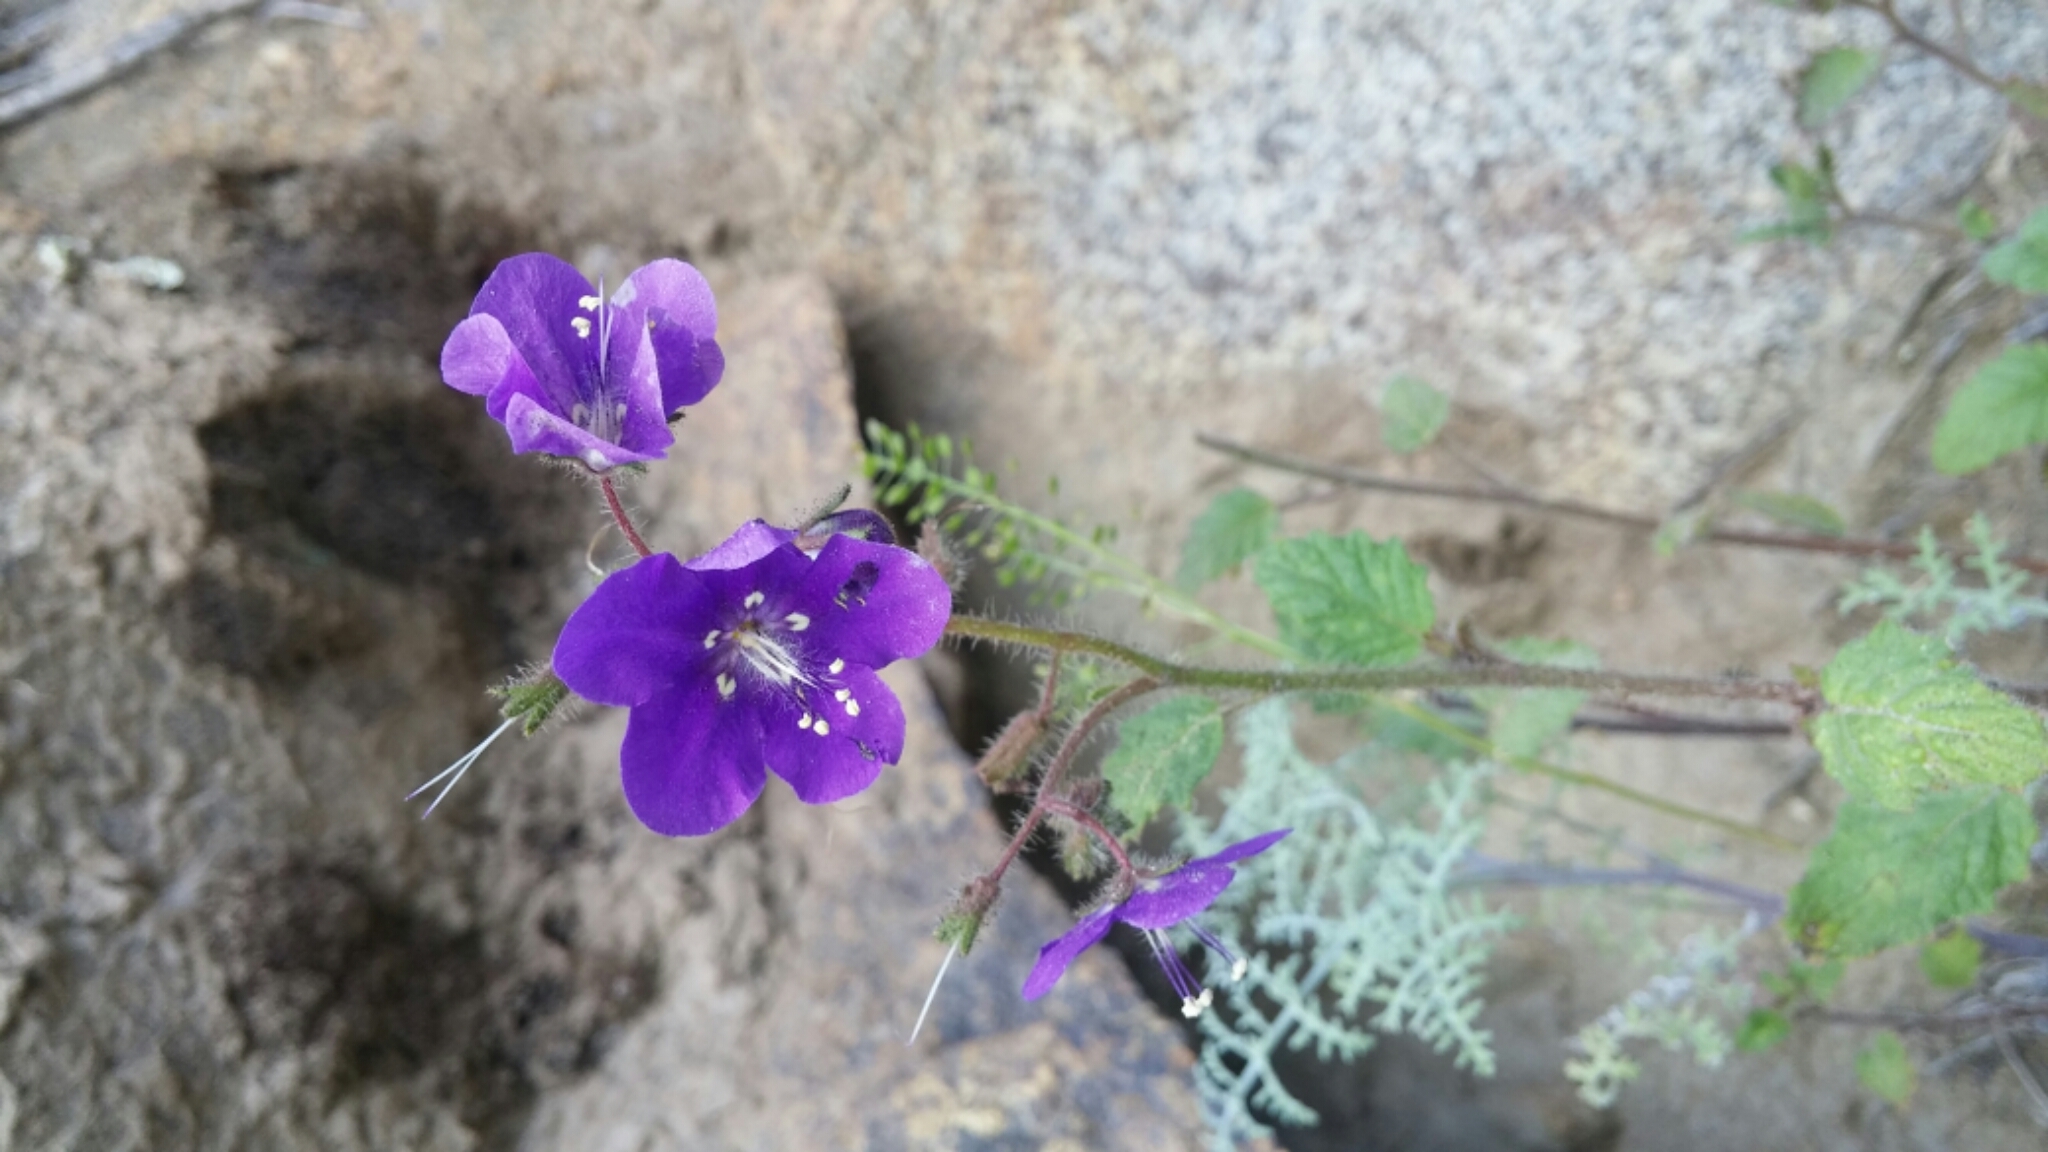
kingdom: Plantae
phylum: Tracheophyta
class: Magnoliopsida
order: Boraginales
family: Hydrophyllaceae
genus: Phacelia
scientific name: Phacelia parryi
